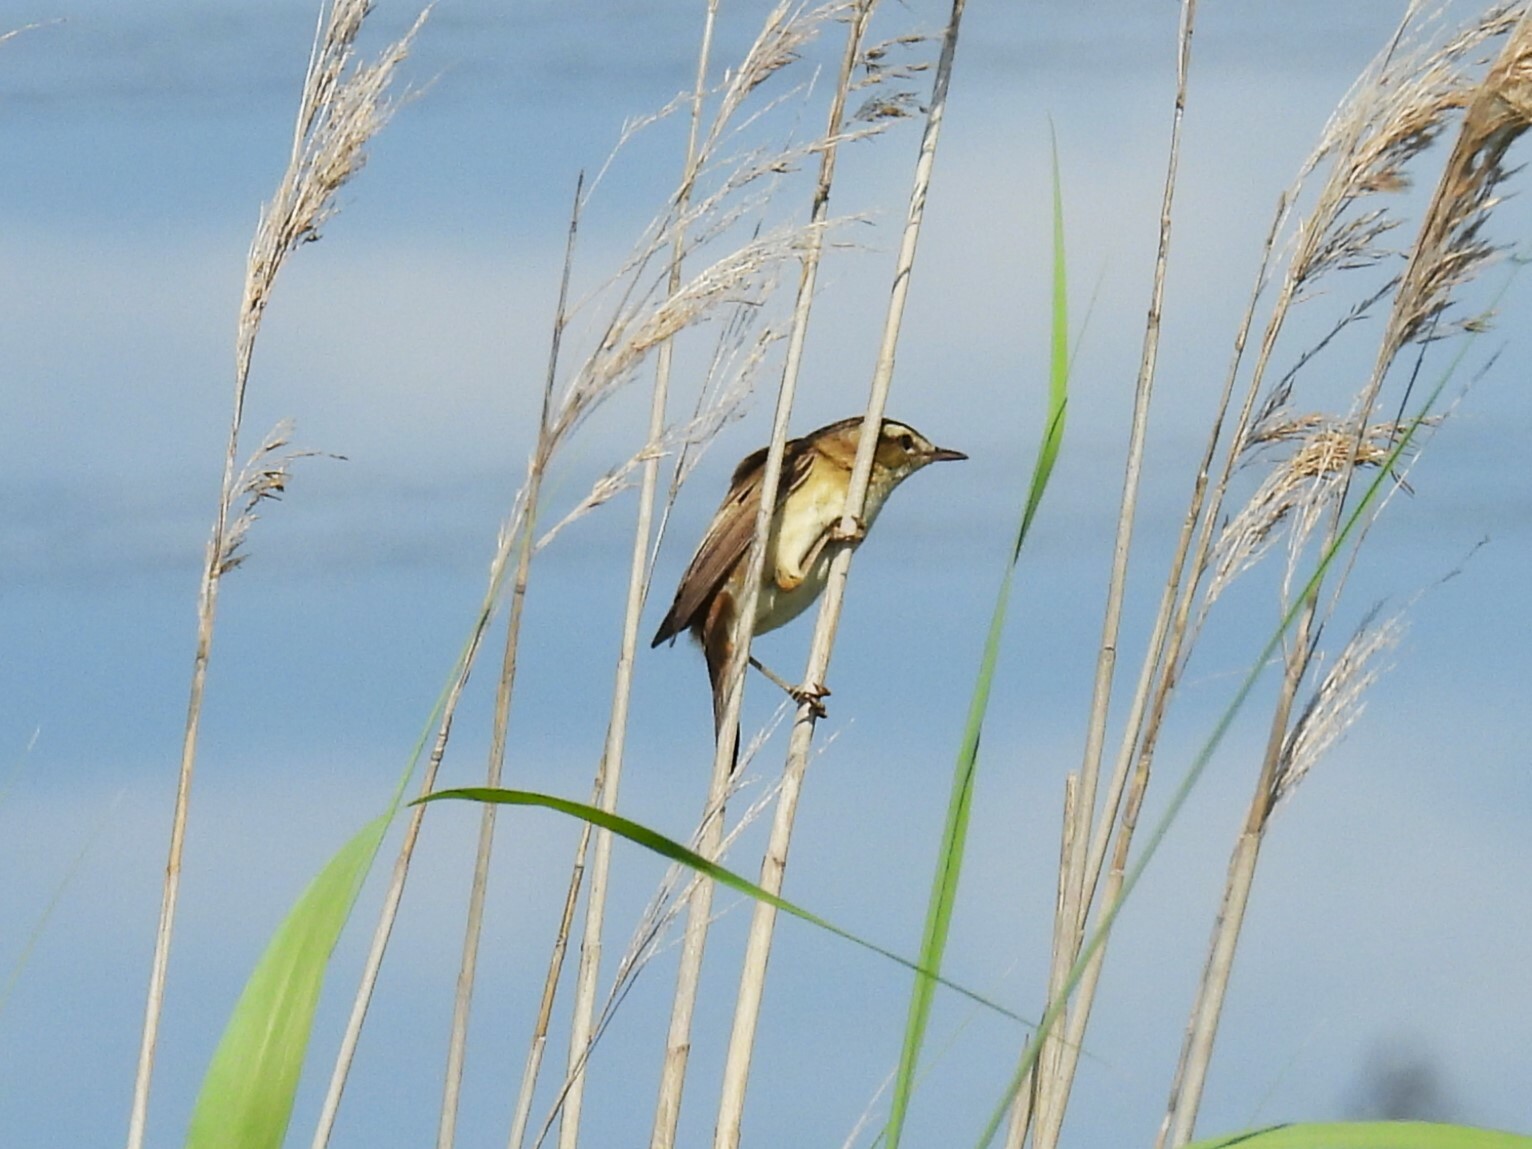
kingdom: Animalia
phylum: Chordata
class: Aves
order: Passeriformes
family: Acrocephalidae
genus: Acrocephalus
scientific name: Acrocephalus schoenobaenus
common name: Sedge warbler
